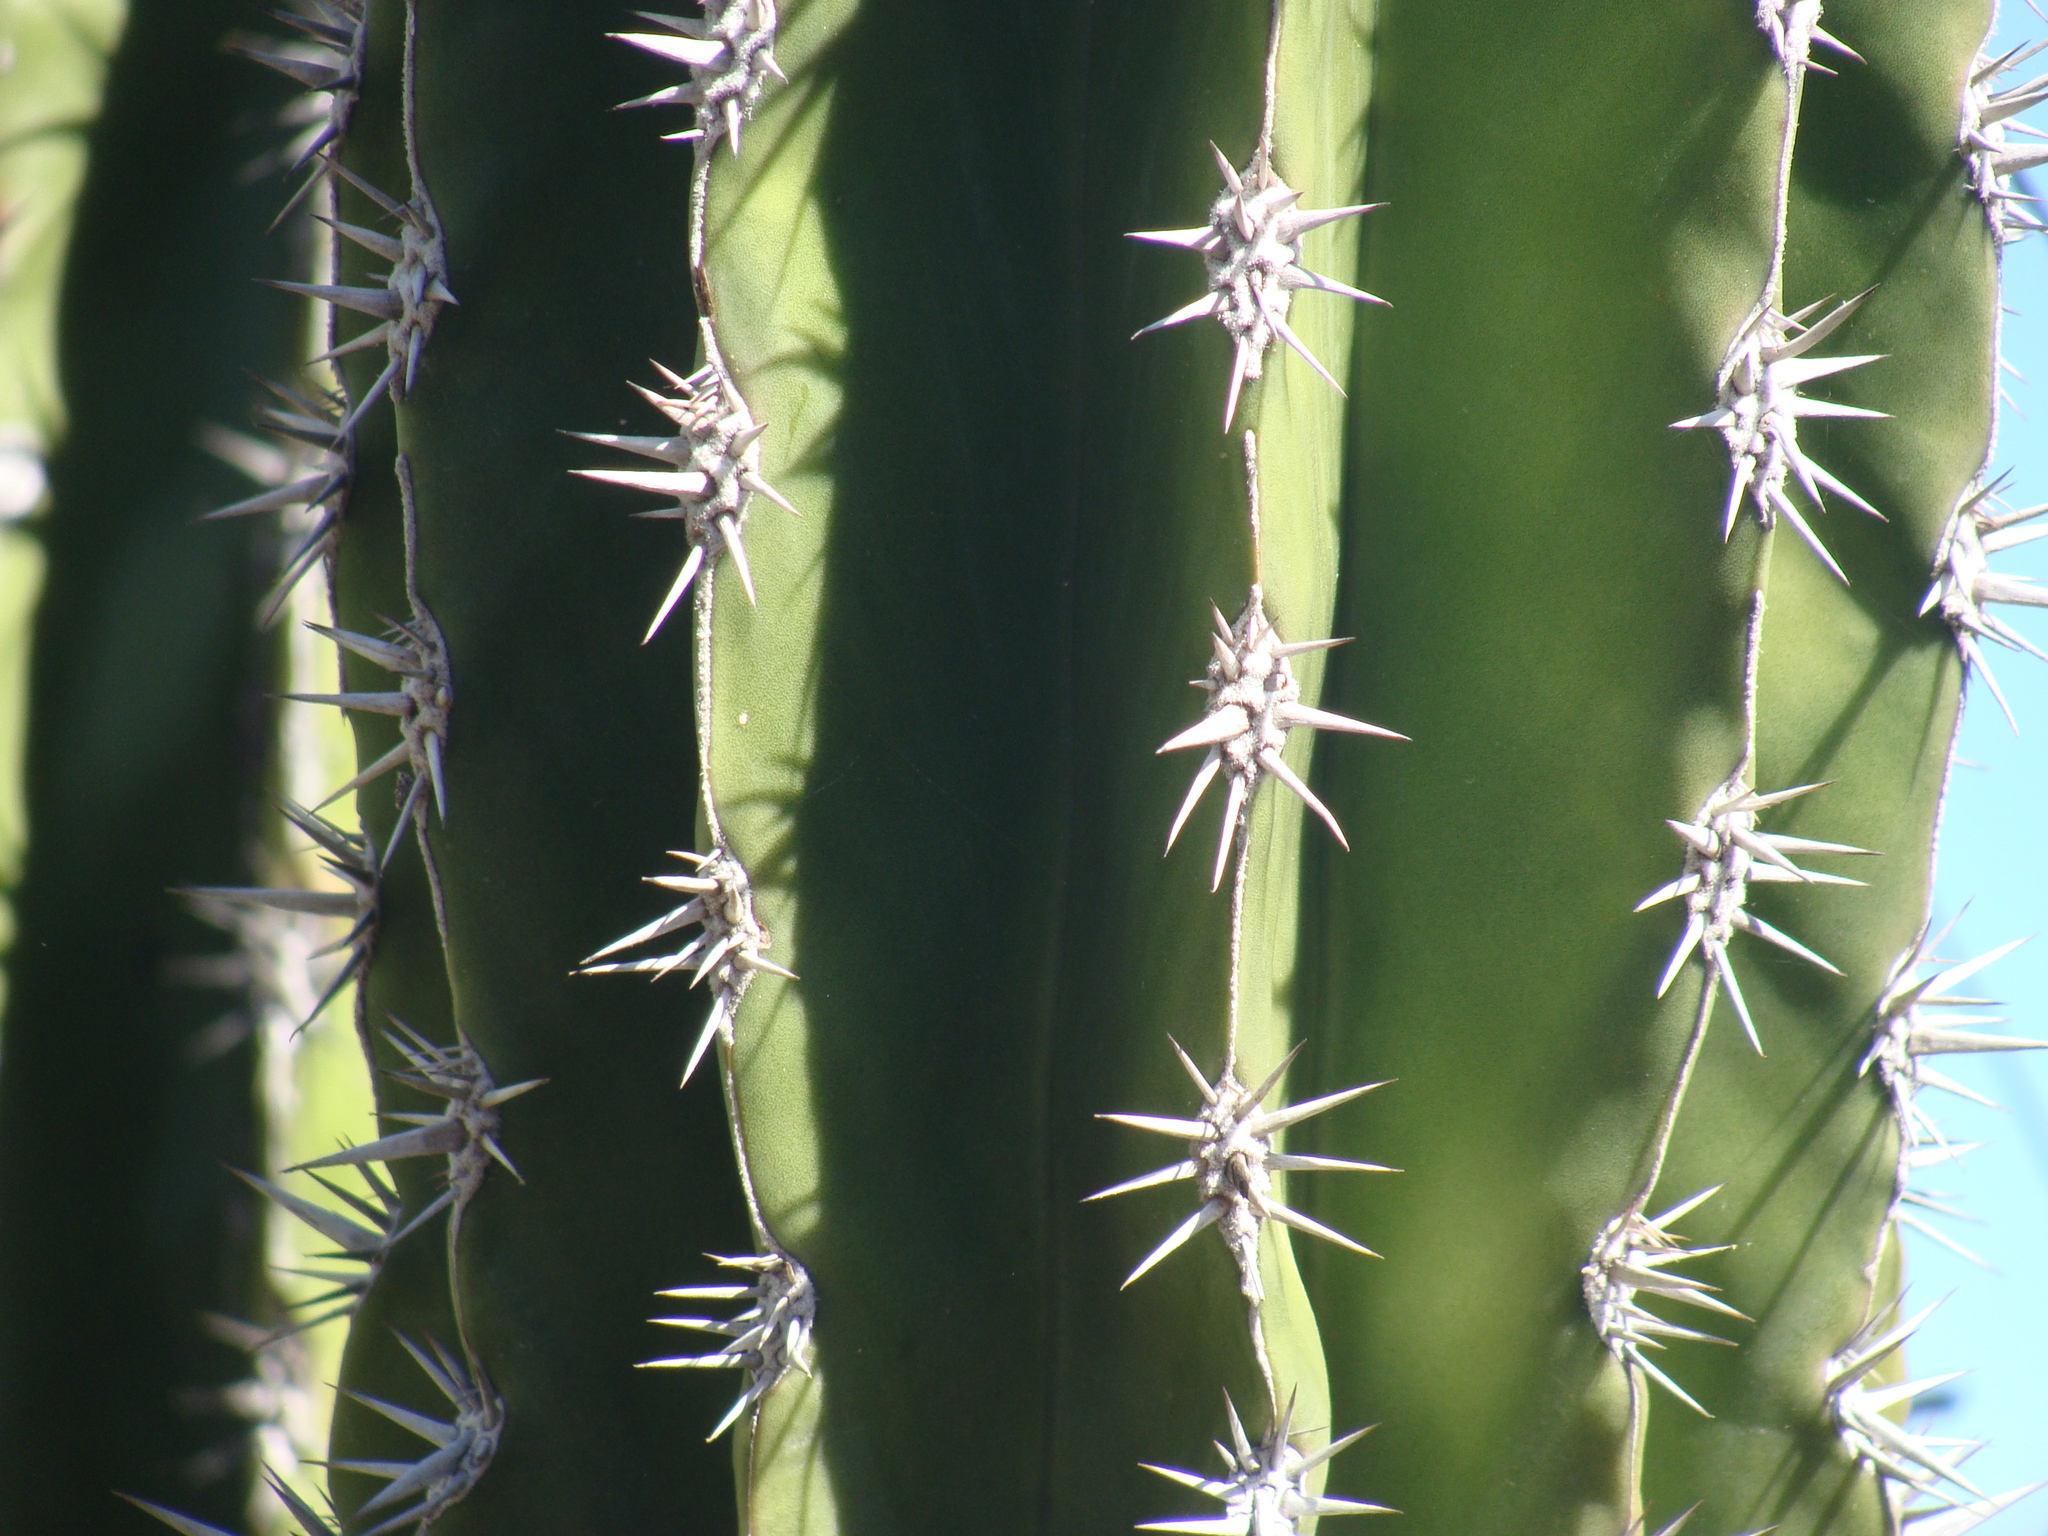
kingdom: Plantae
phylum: Tracheophyta
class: Magnoliopsida
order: Caryophyllales
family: Cactaceae
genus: Pachycereus
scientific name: Pachycereus pecten-aboriginum
